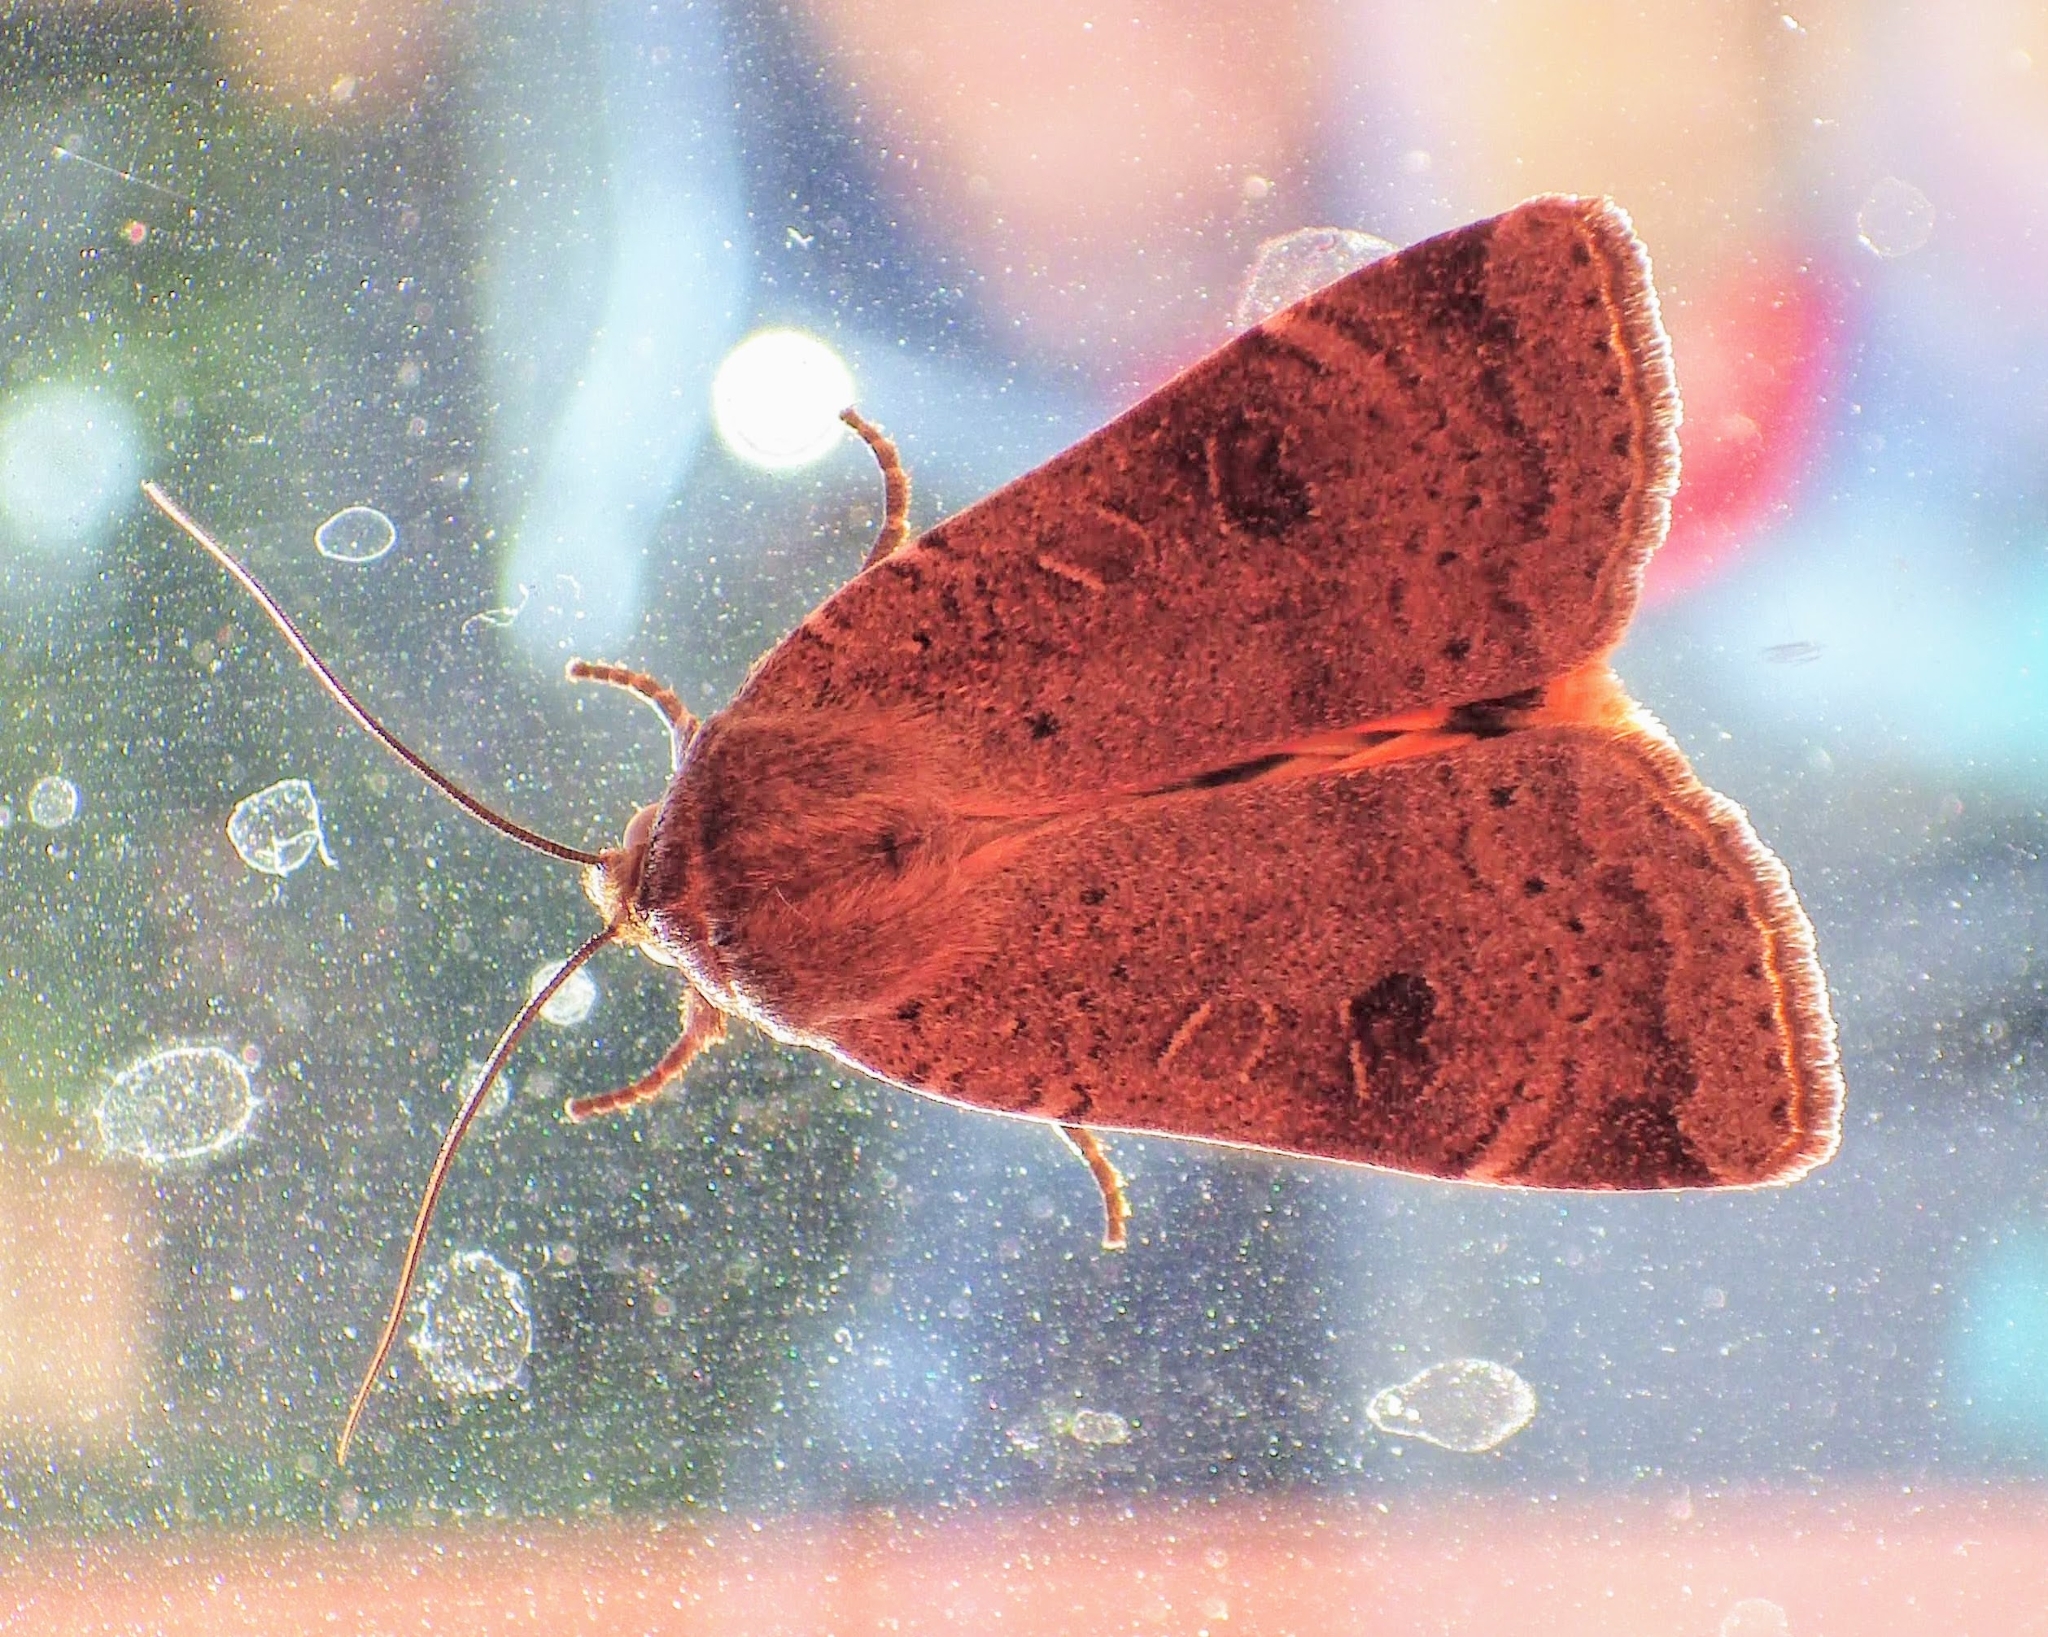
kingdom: Animalia
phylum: Arthropoda
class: Insecta
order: Lepidoptera
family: Noctuidae
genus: Noctua
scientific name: Noctua comes
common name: Lesser yellow underwing
